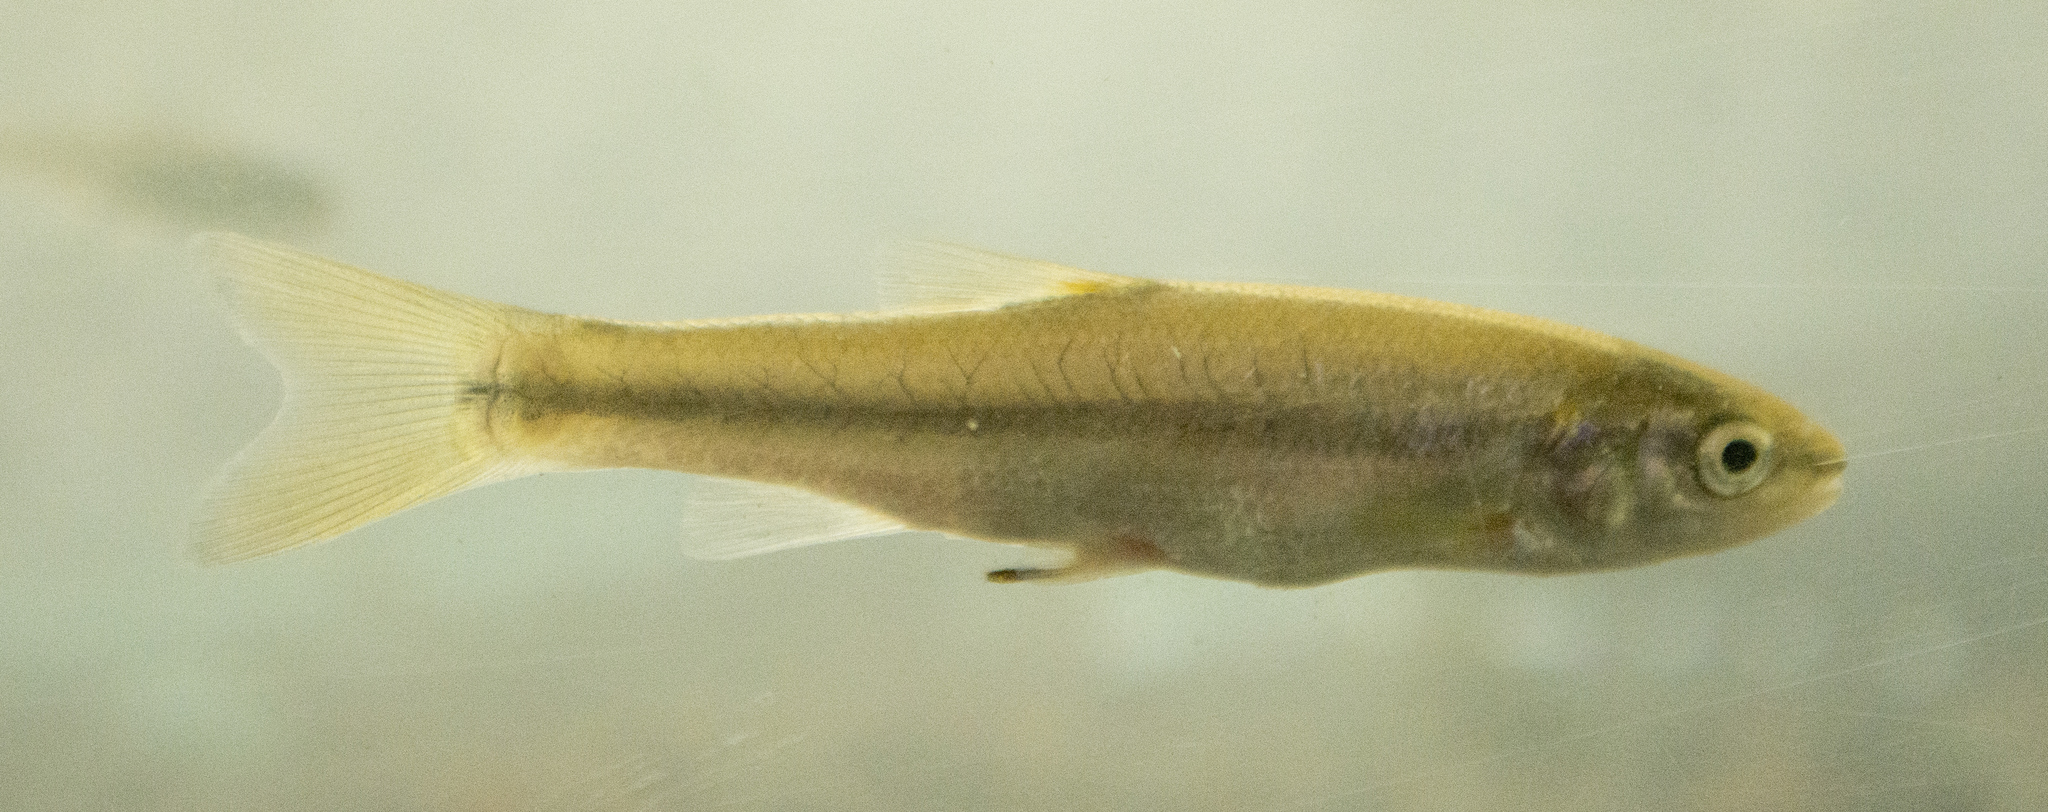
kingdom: Animalia
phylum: Chordata
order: Cypriniformes
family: Cyprinidae
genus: Semotilus
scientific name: Semotilus atromaculatus
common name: Creek chub
